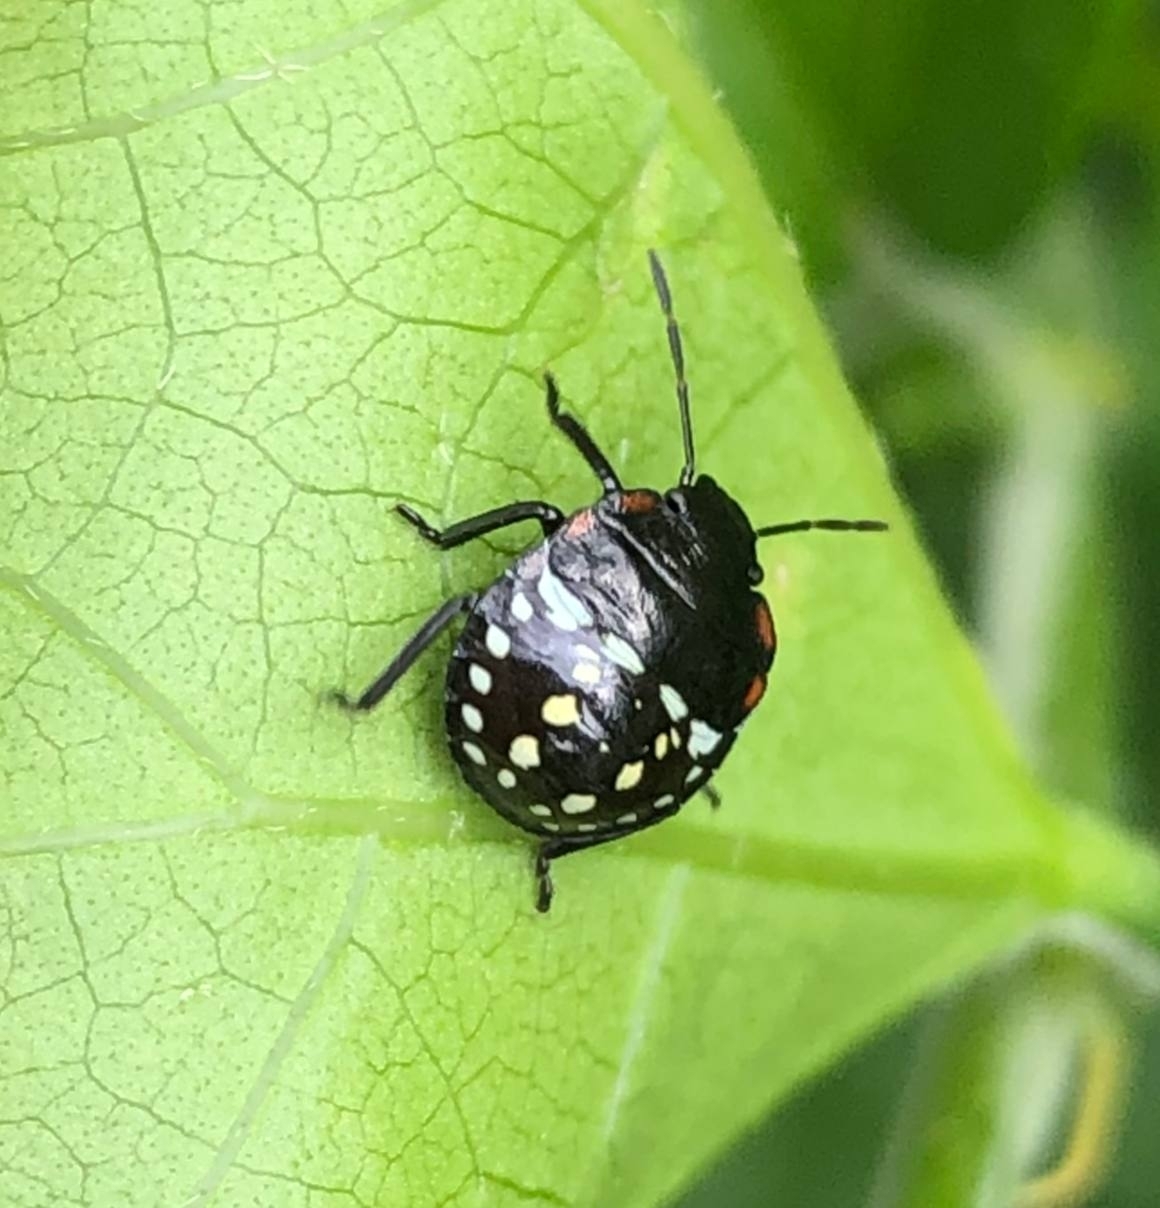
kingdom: Animalia
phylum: Arthropoda
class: Insecta
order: Hemiptera
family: Pentatomidae
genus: Nezara
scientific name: Nezara viridula
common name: Southern green stink bug
